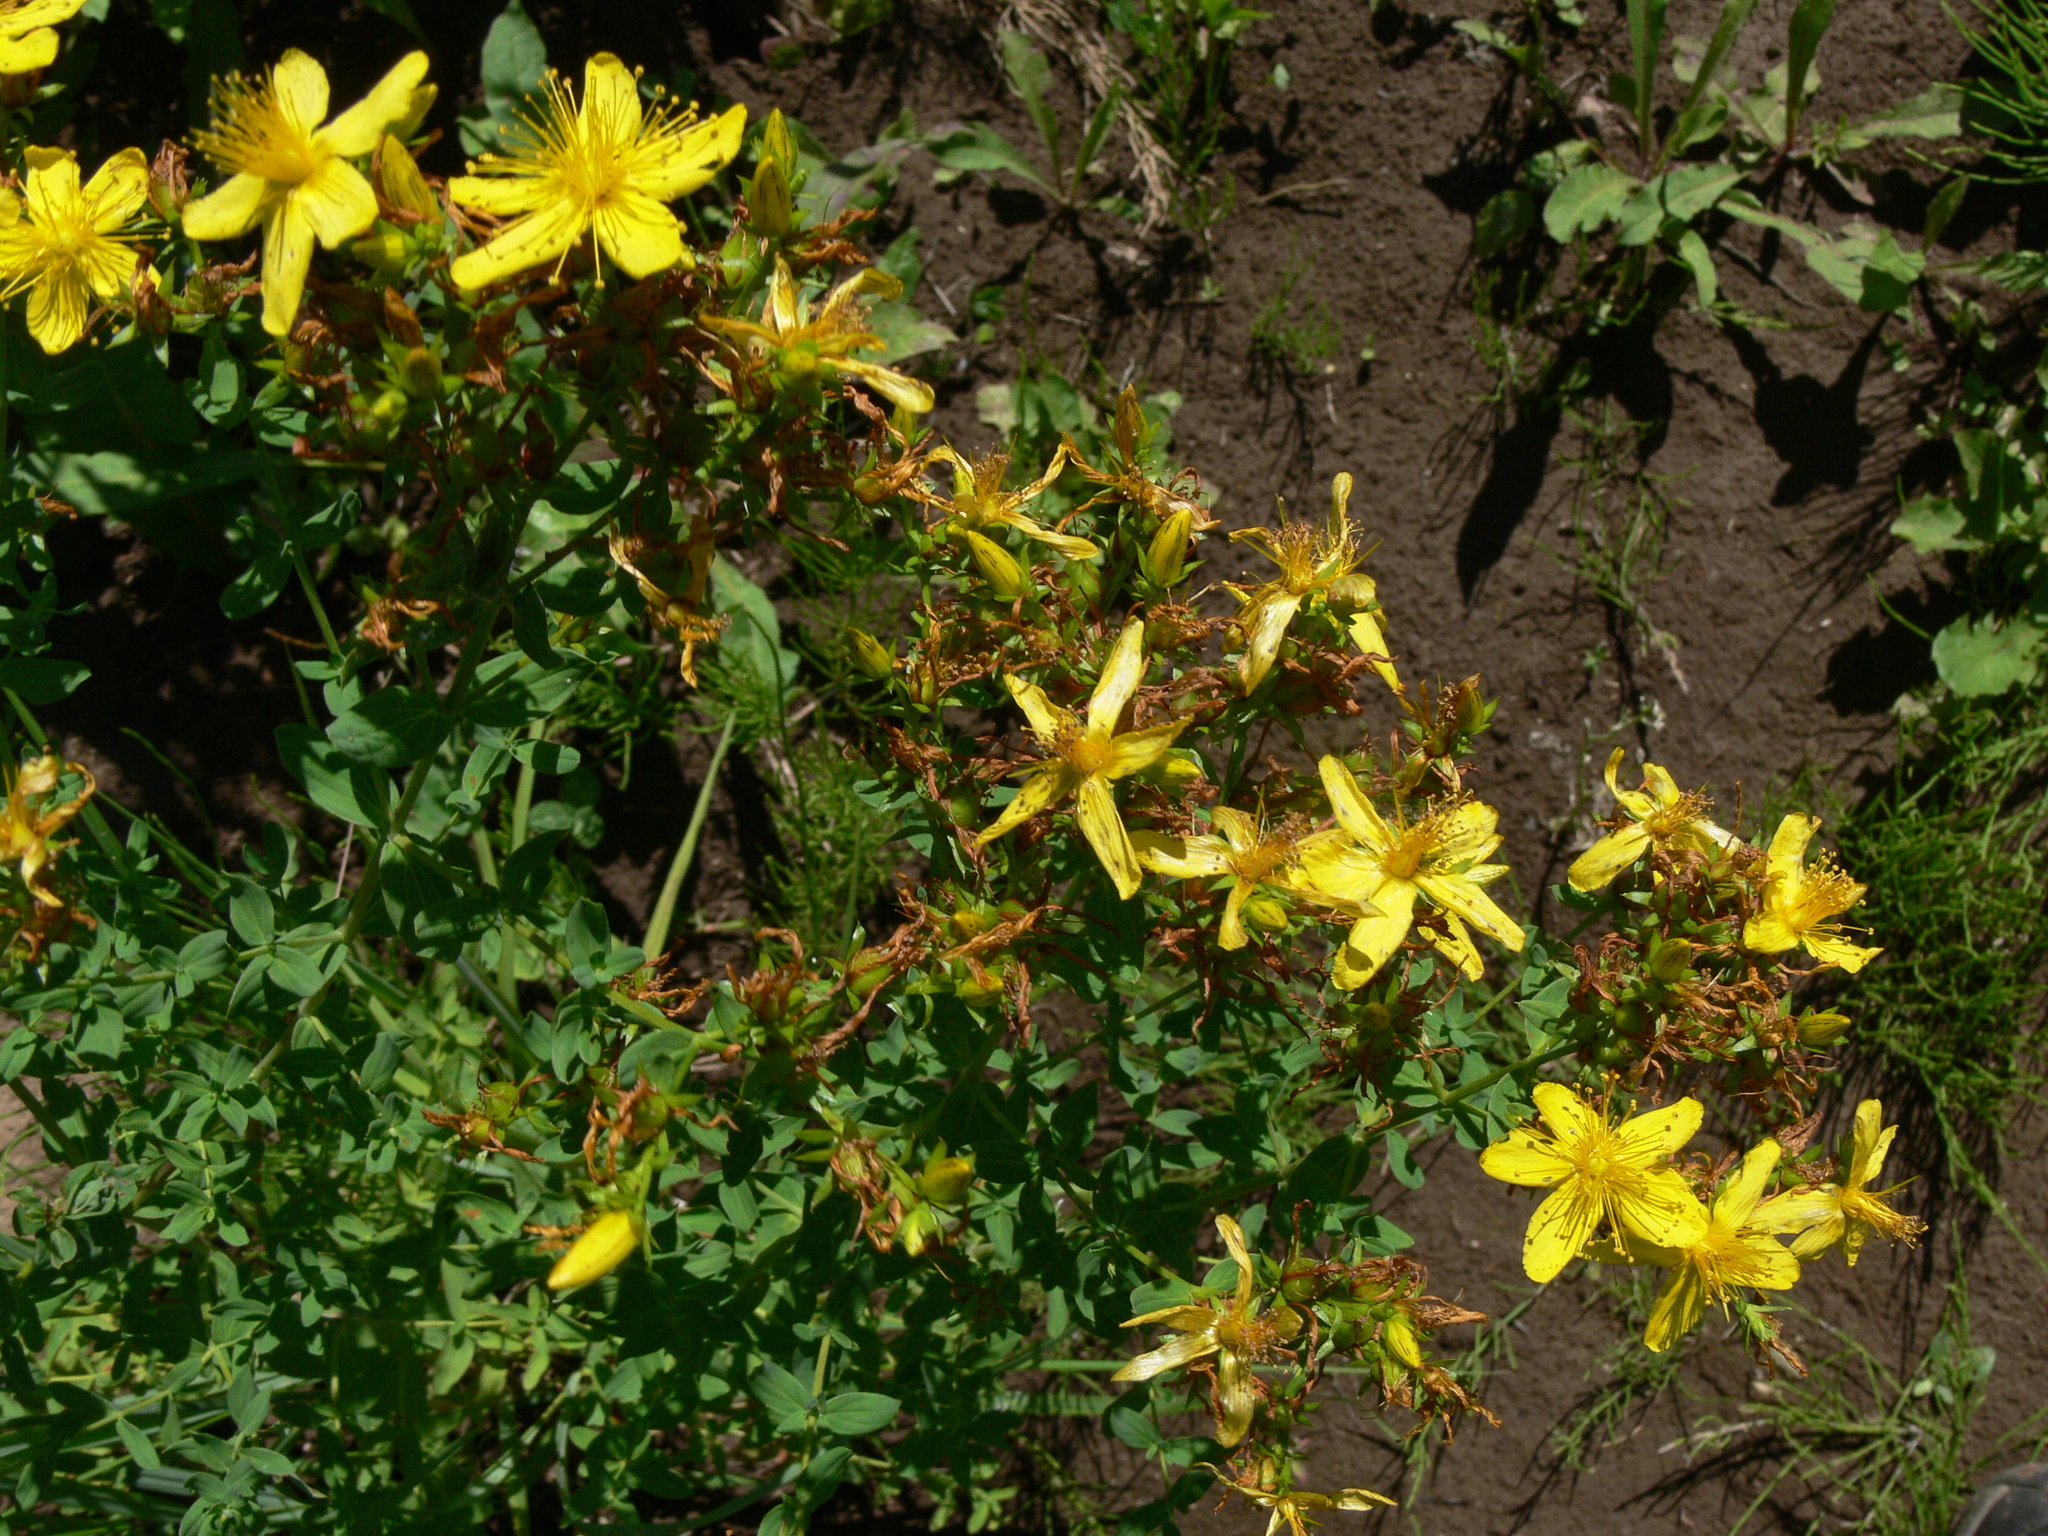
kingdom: Plantae
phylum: Tracheophyta
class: Magnoliopsida
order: Malpighiales
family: Hypericaceae
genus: Hypericum
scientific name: Hypericum perforatum
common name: Common st. johnswort
